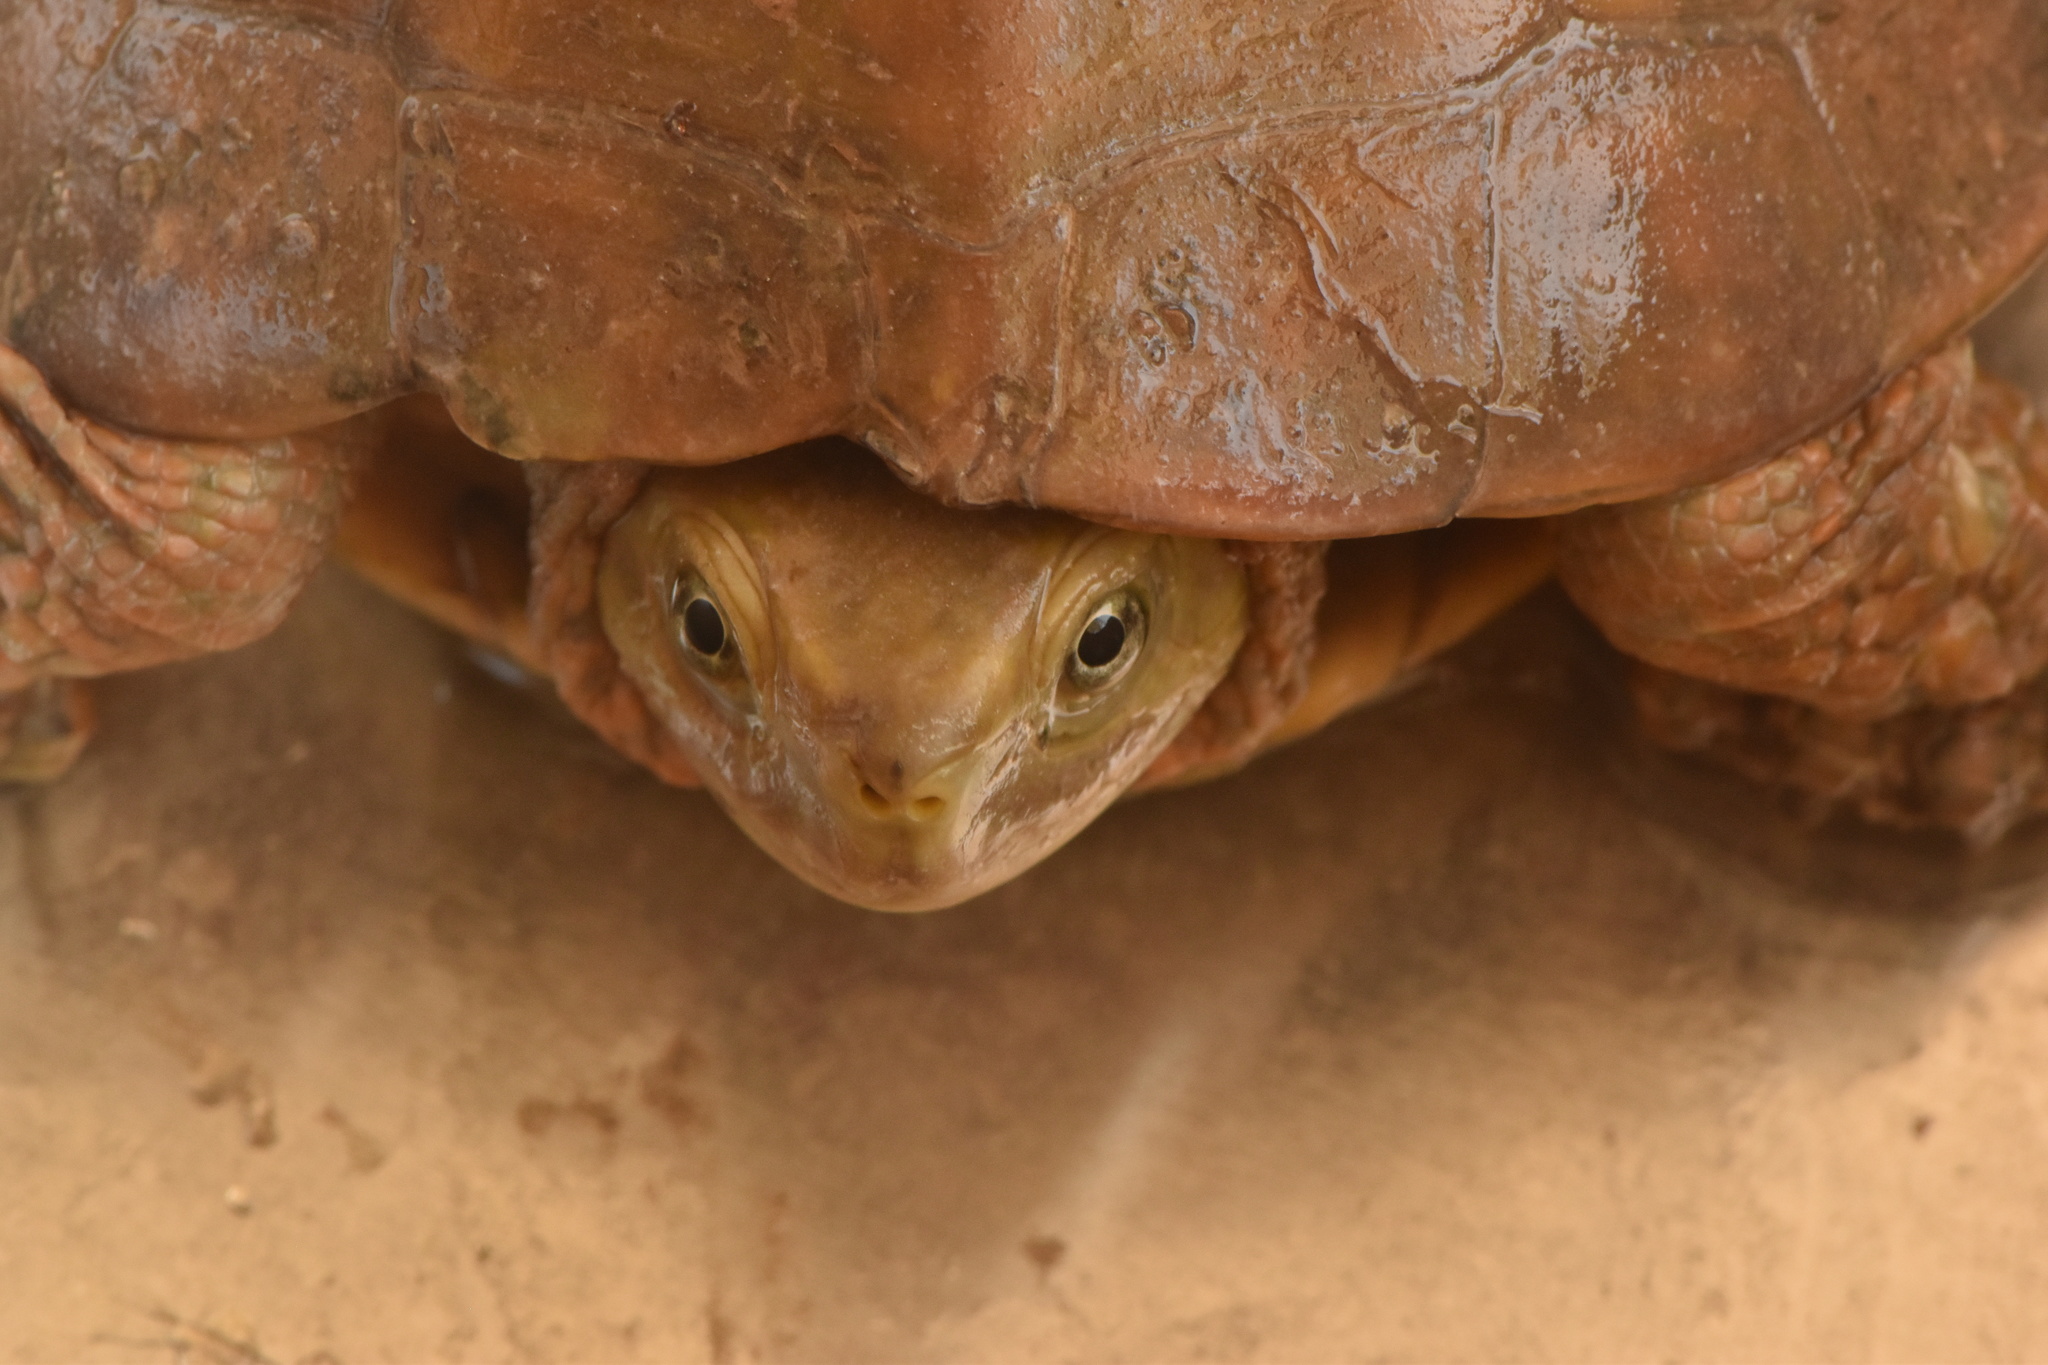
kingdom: Animalia
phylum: Chordata
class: Testudines
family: Geoemydidae
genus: Mauremys
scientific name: Mauremys leprosa
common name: Mediterranean pond turtle
